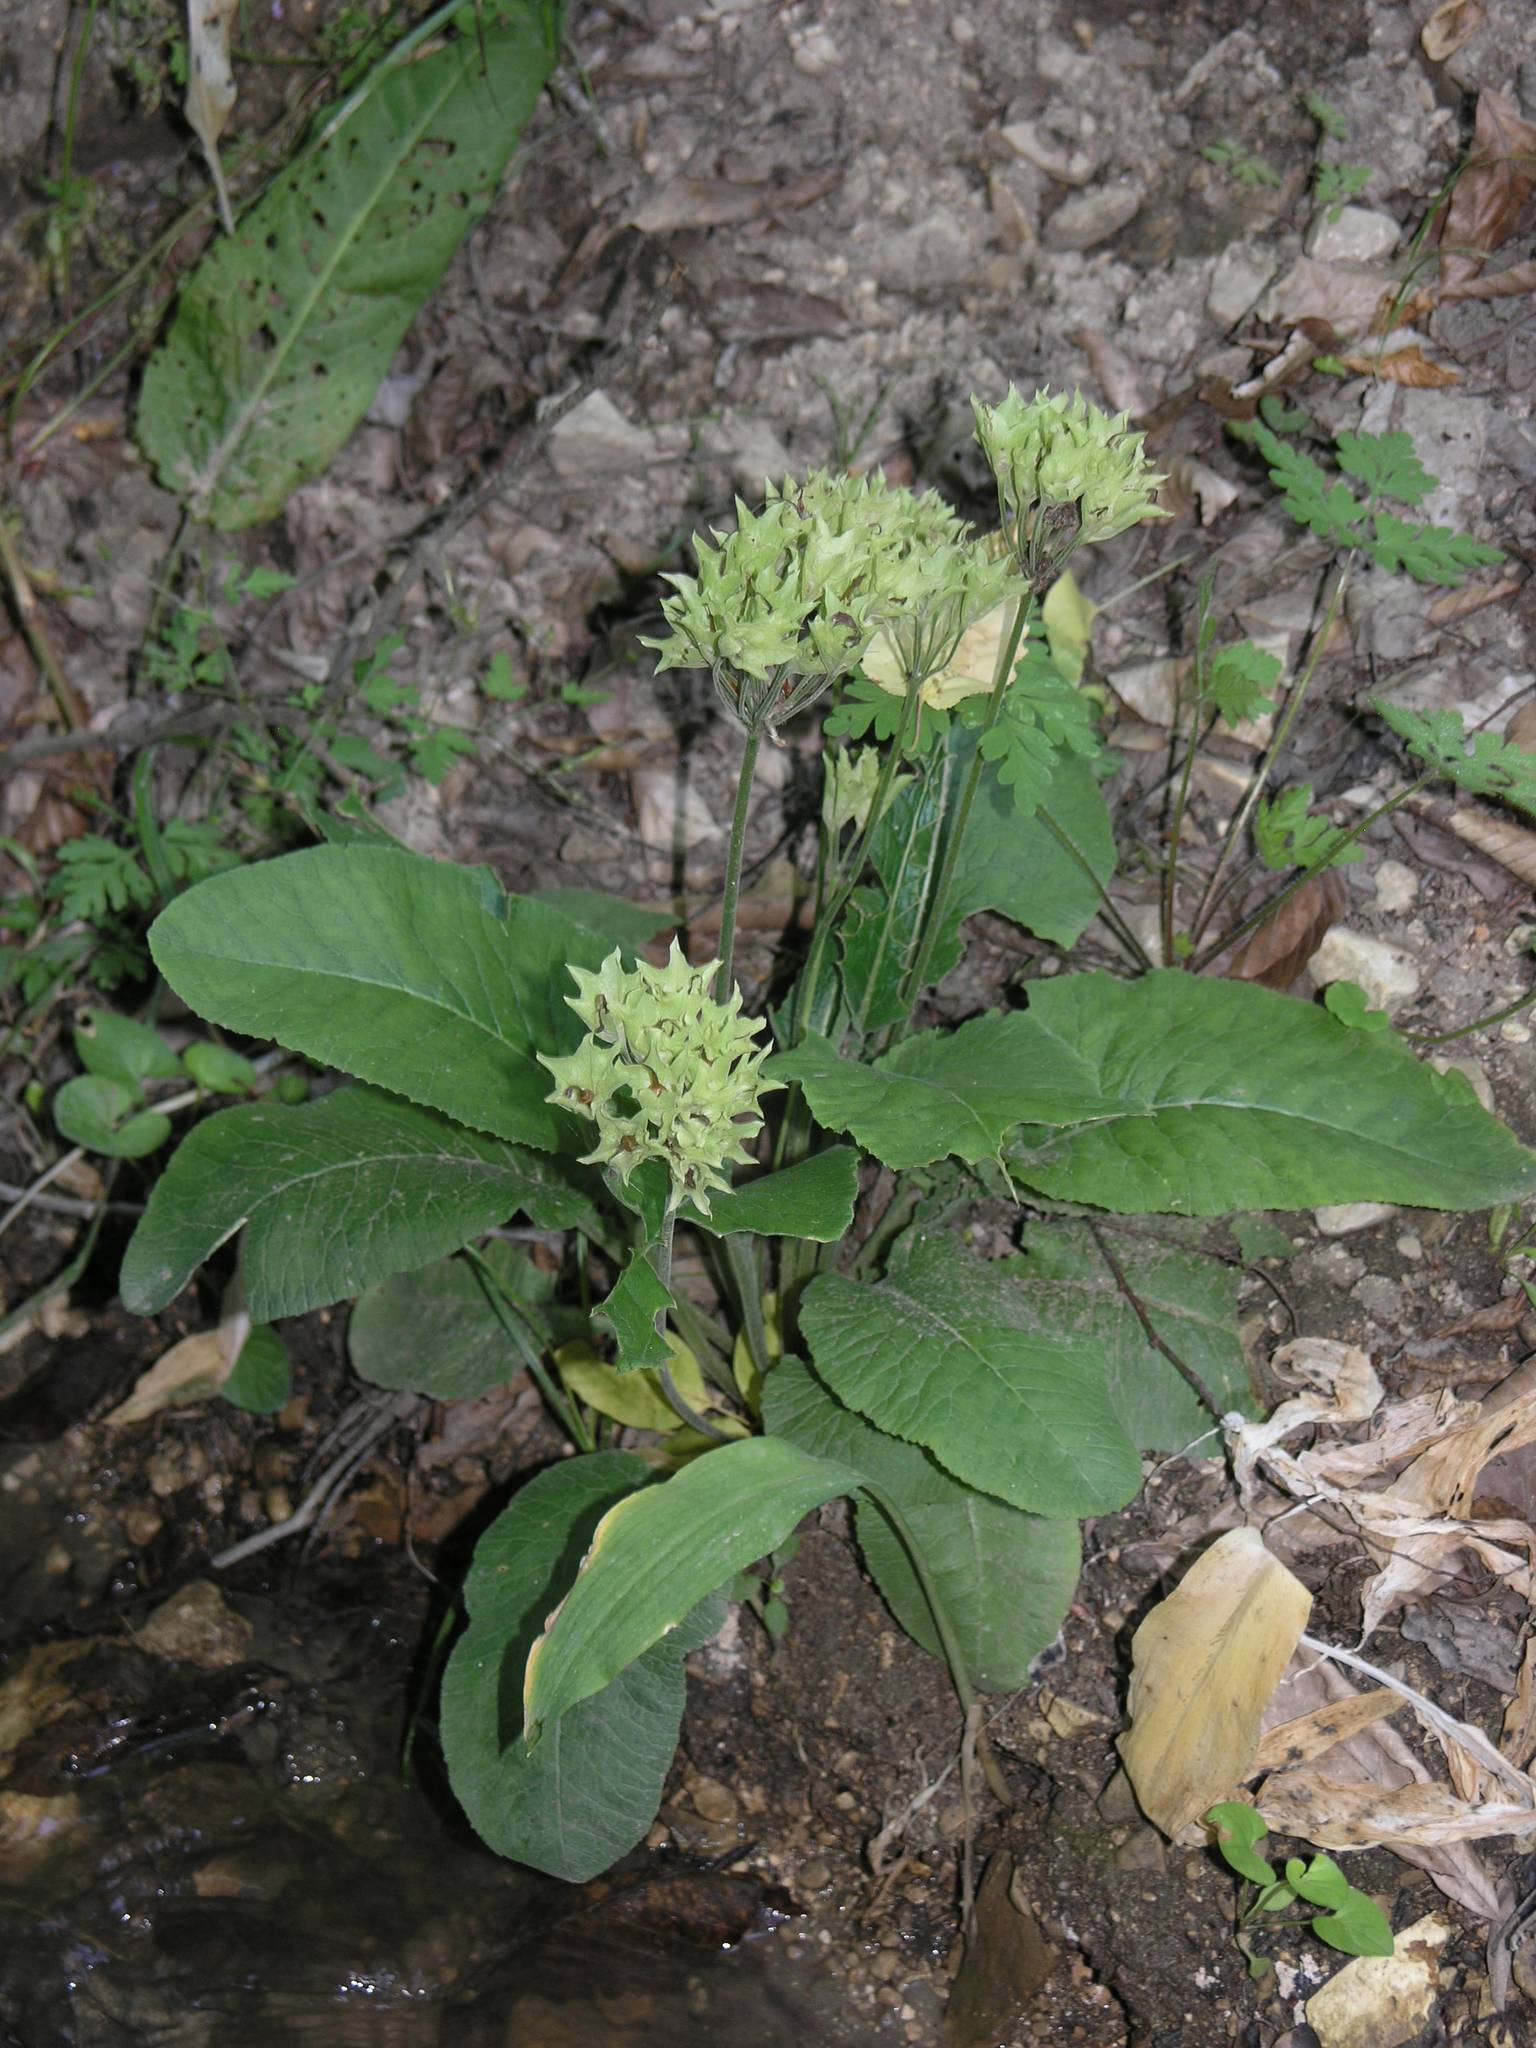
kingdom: Plantae
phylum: Tracheophyta
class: Magnoliopsida
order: Ericales
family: Primulaceae
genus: Primula
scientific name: Primula veris
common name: Cowslip
